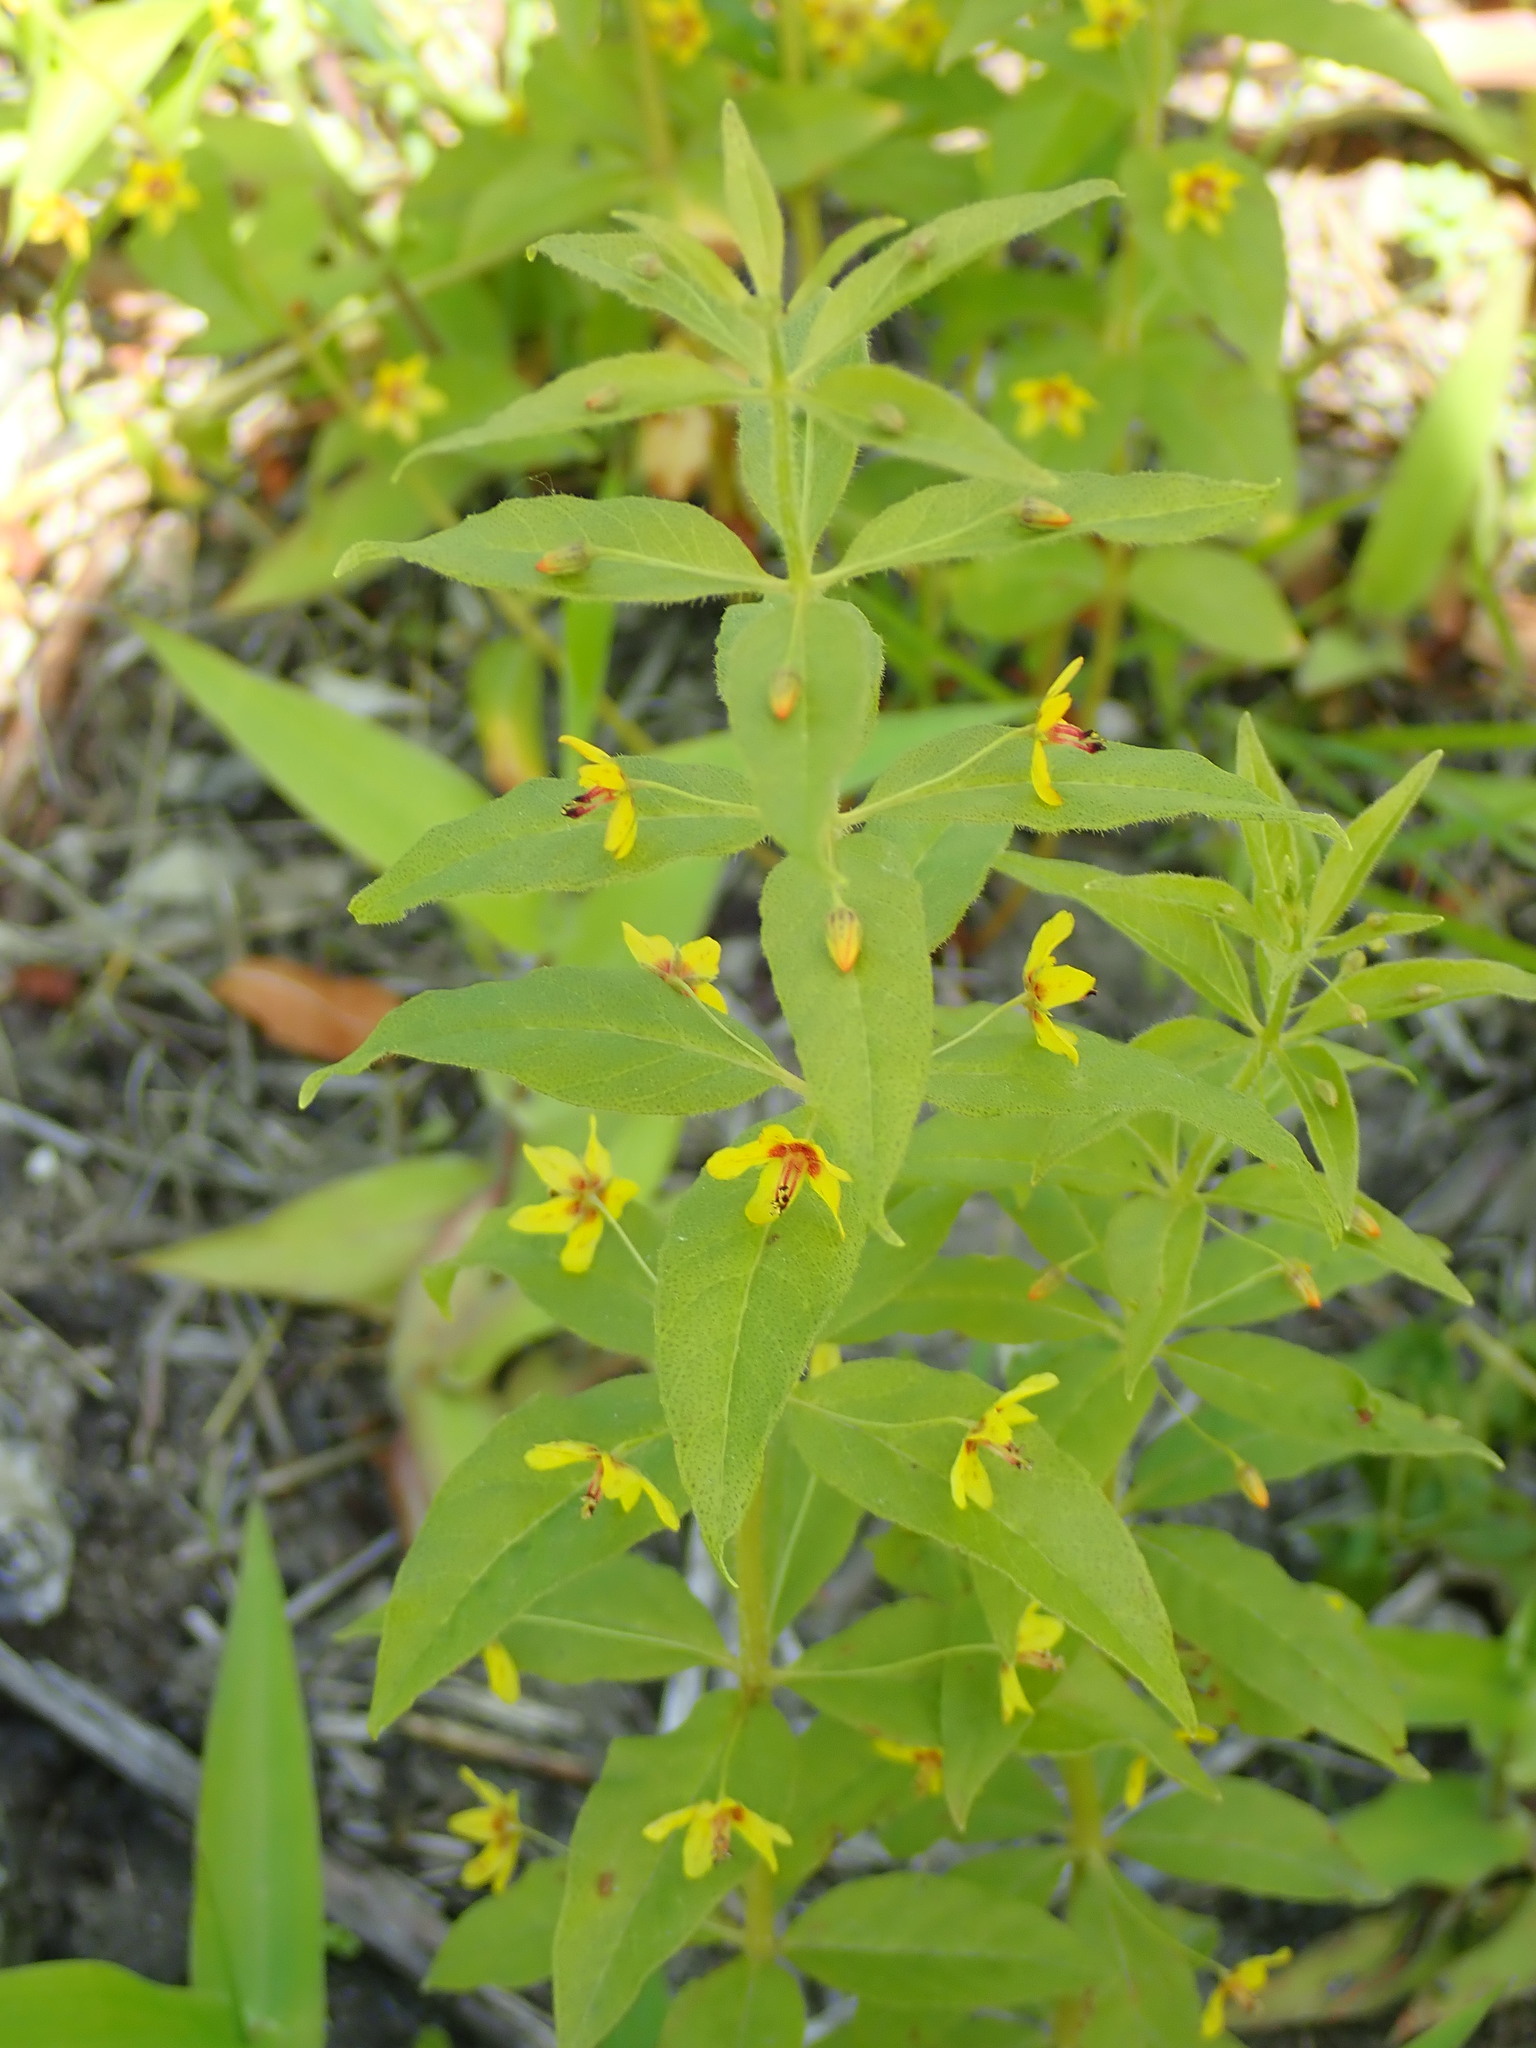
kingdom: Plantae
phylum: Tracheophyta
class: Magnoliopsida
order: Ericales
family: Primulaceae
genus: Lysimachia
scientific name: Lysimachia quadrifolia
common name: Whorled loosestrife
